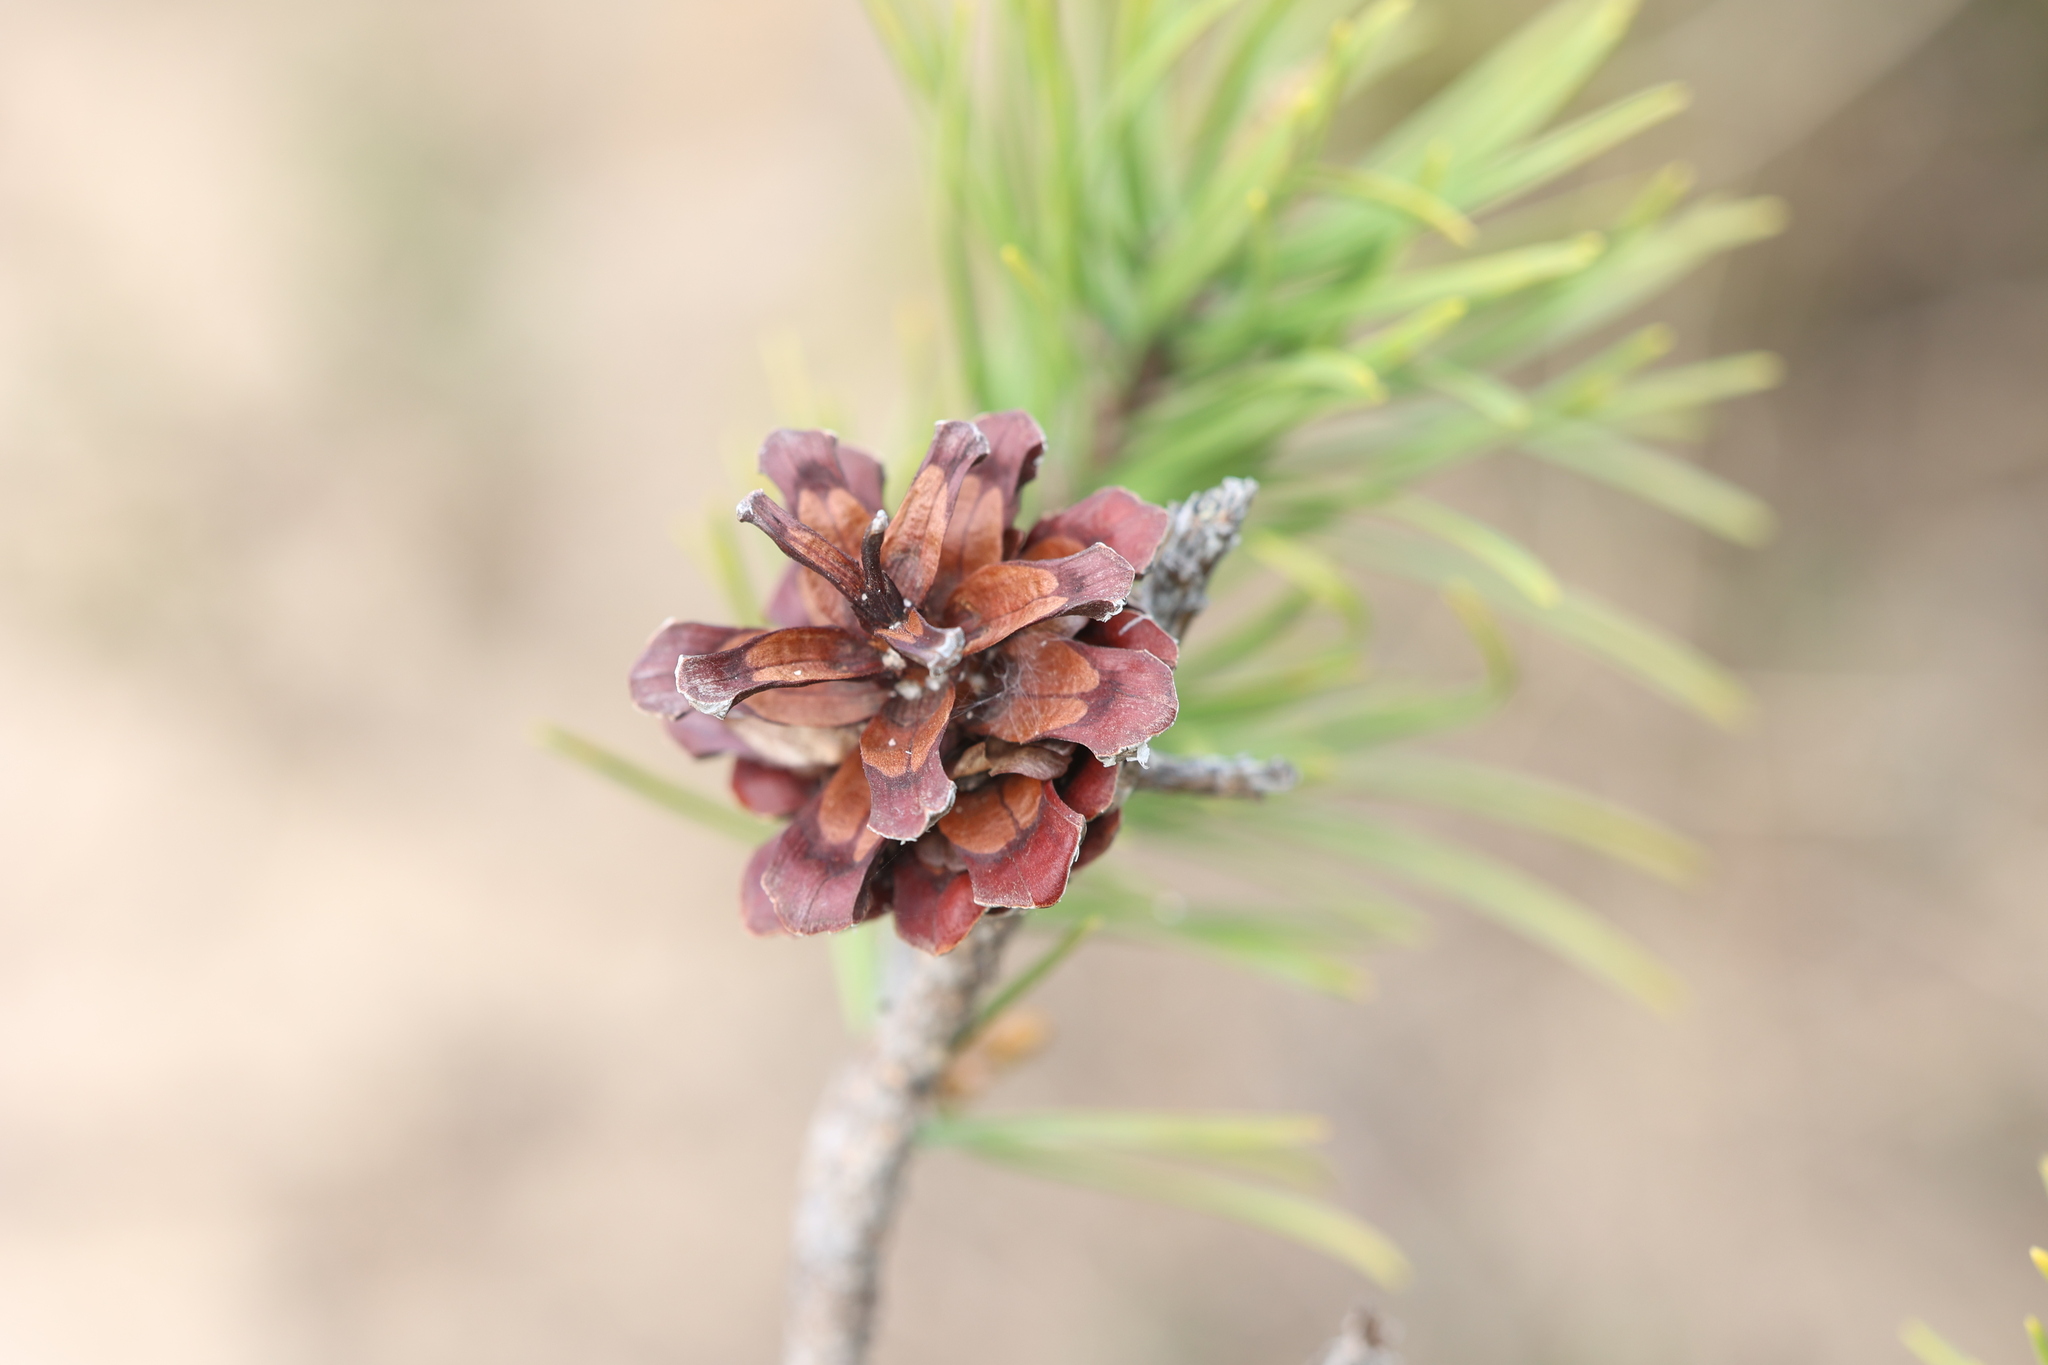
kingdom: Plantae
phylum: Tracheophyta
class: Pinopsida
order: Pinales
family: Pinaceae
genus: Pinus
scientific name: Pinus banksiana
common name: Jack pine
